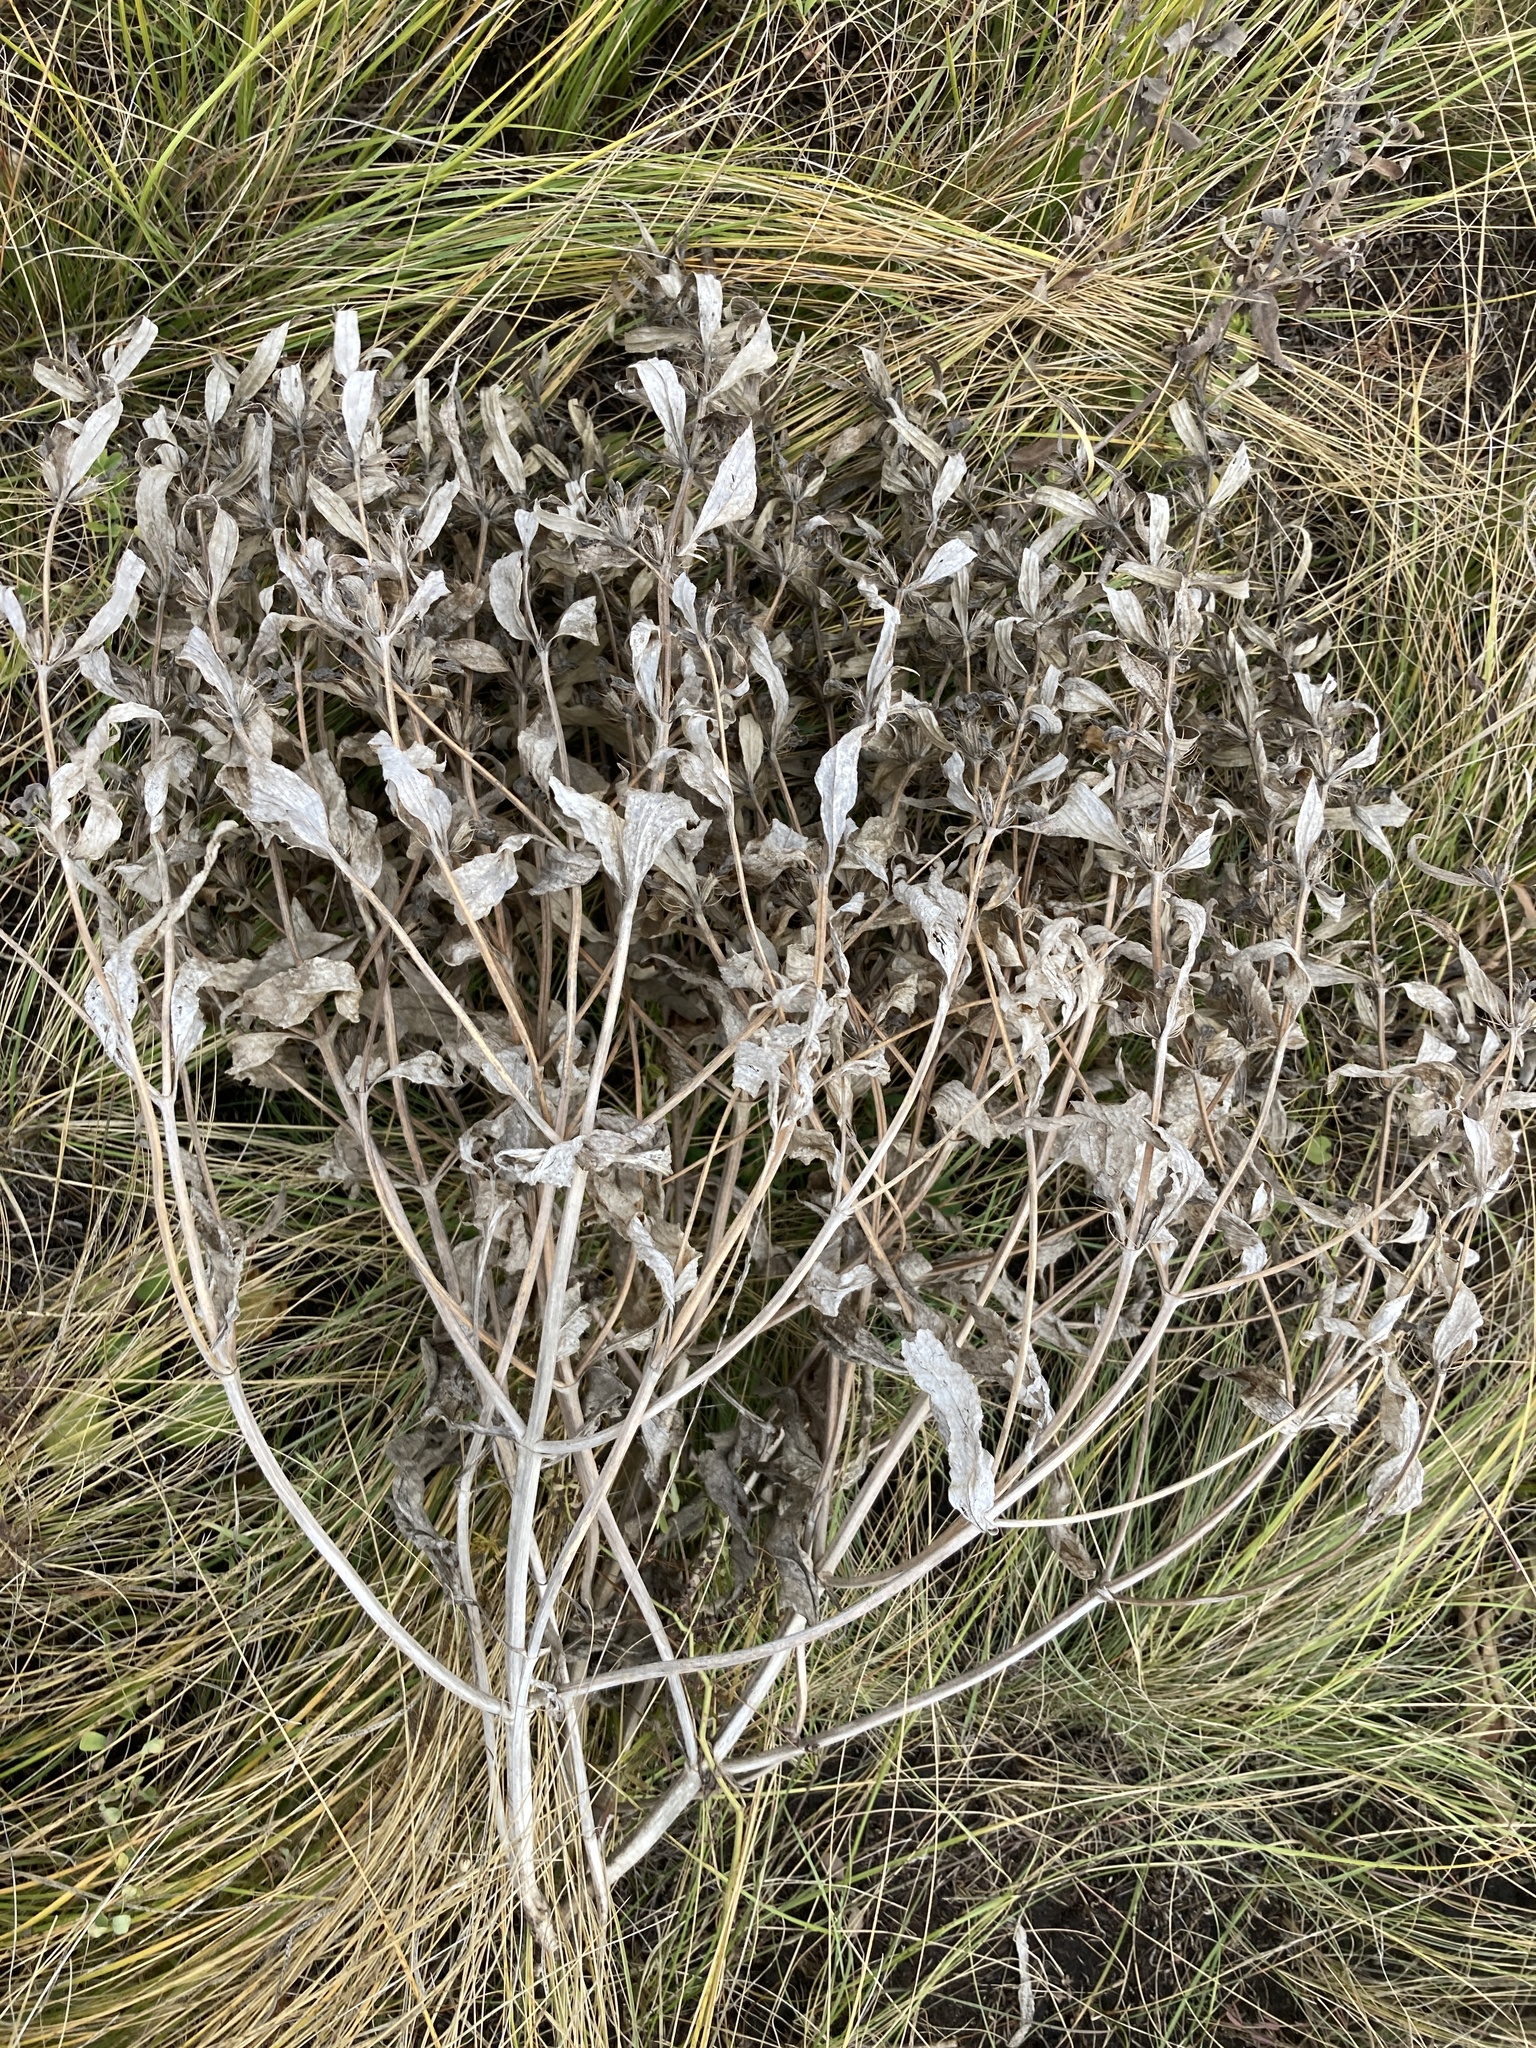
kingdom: Plantae
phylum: Tracheophyta
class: Magnoliopsida
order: Lamiales
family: Lamiaceae
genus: Phlomis
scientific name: Phlomis herba-venti
